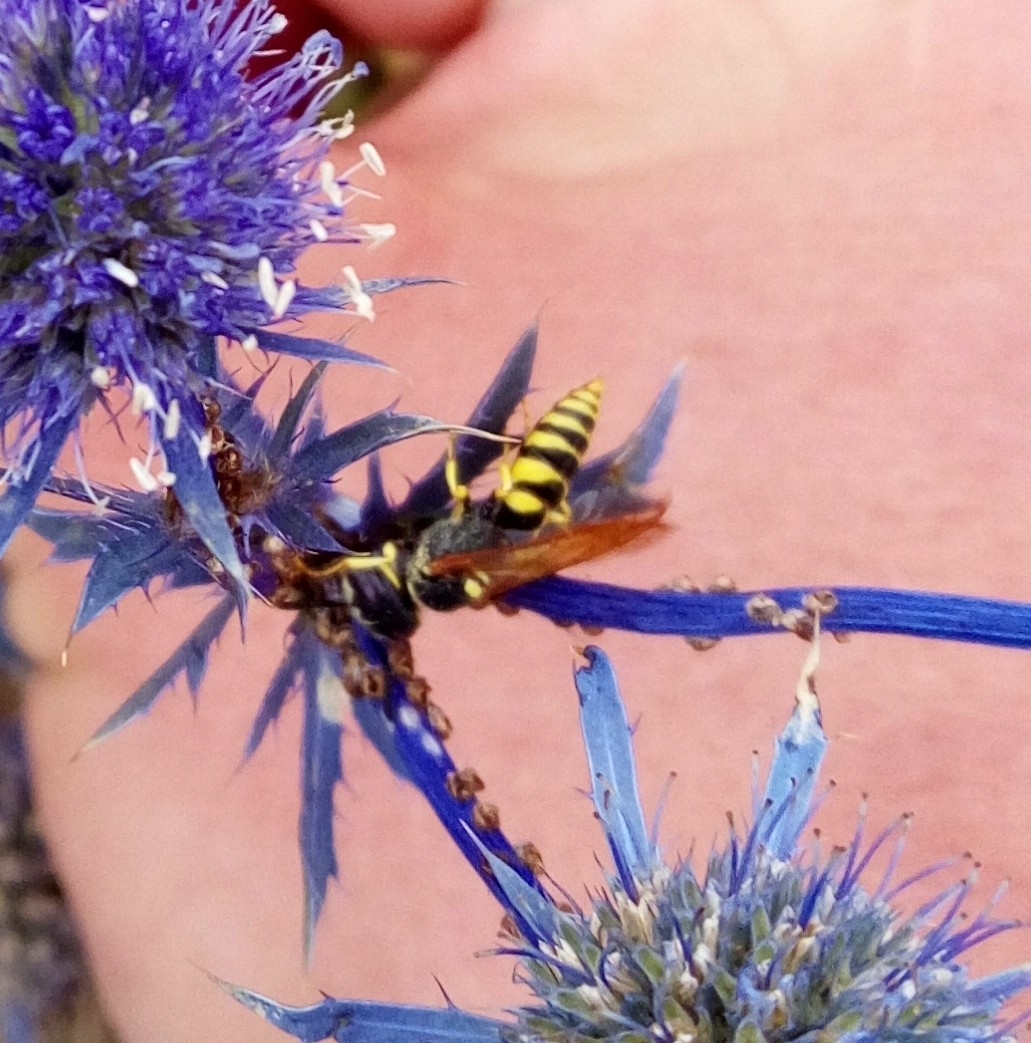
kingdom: Animalia
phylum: Arthropoda
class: Insecta
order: Hymenoptera
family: Crabronidae
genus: Philanthus
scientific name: Philanthus triangulum
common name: Bee wolf
